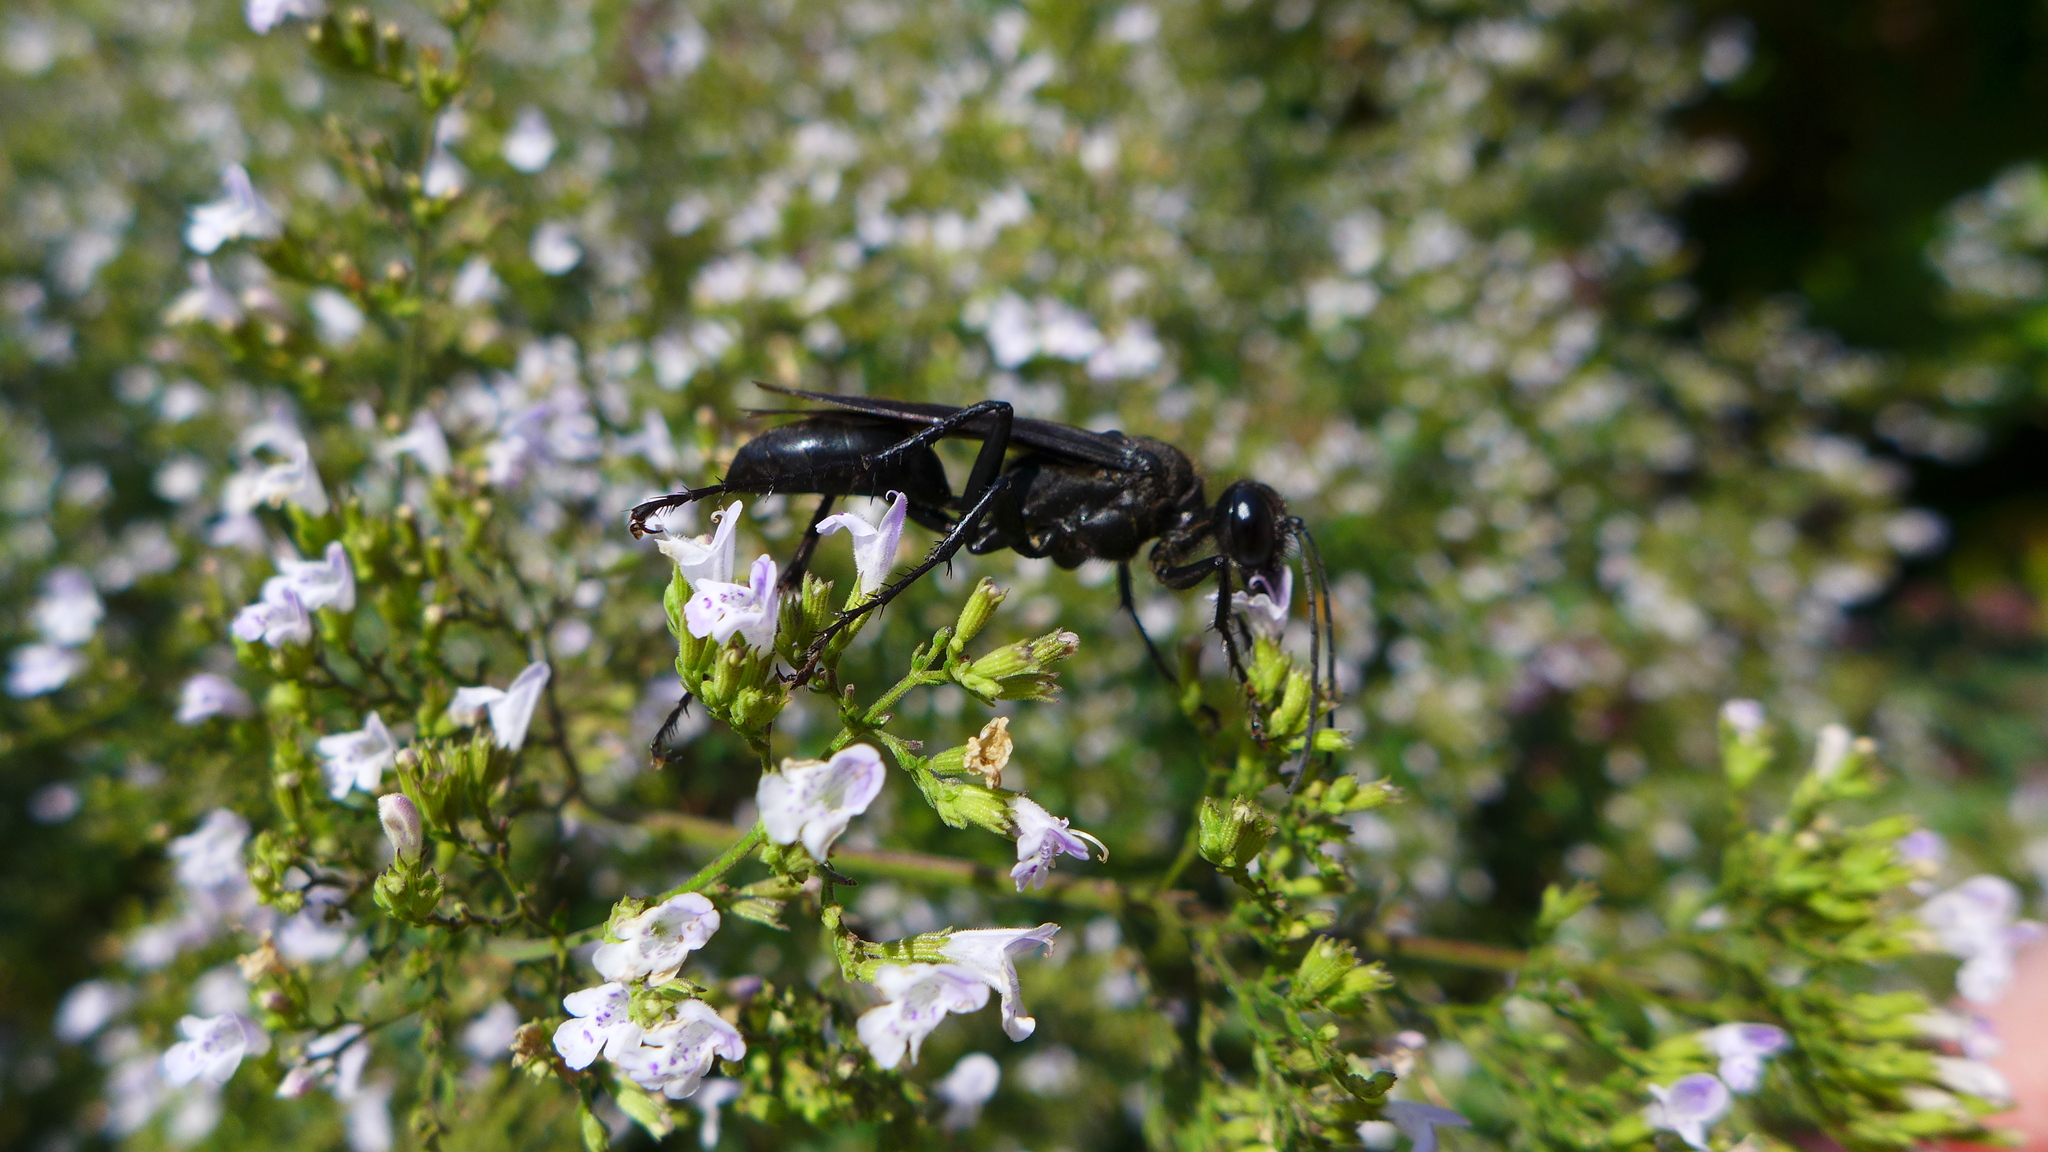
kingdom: Animalia
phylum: Arthropoda
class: Insecta
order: Hymenoptera
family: Sphecidae
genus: Sphex
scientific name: Sphex pensylvanicus
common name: Great black digger wasp
